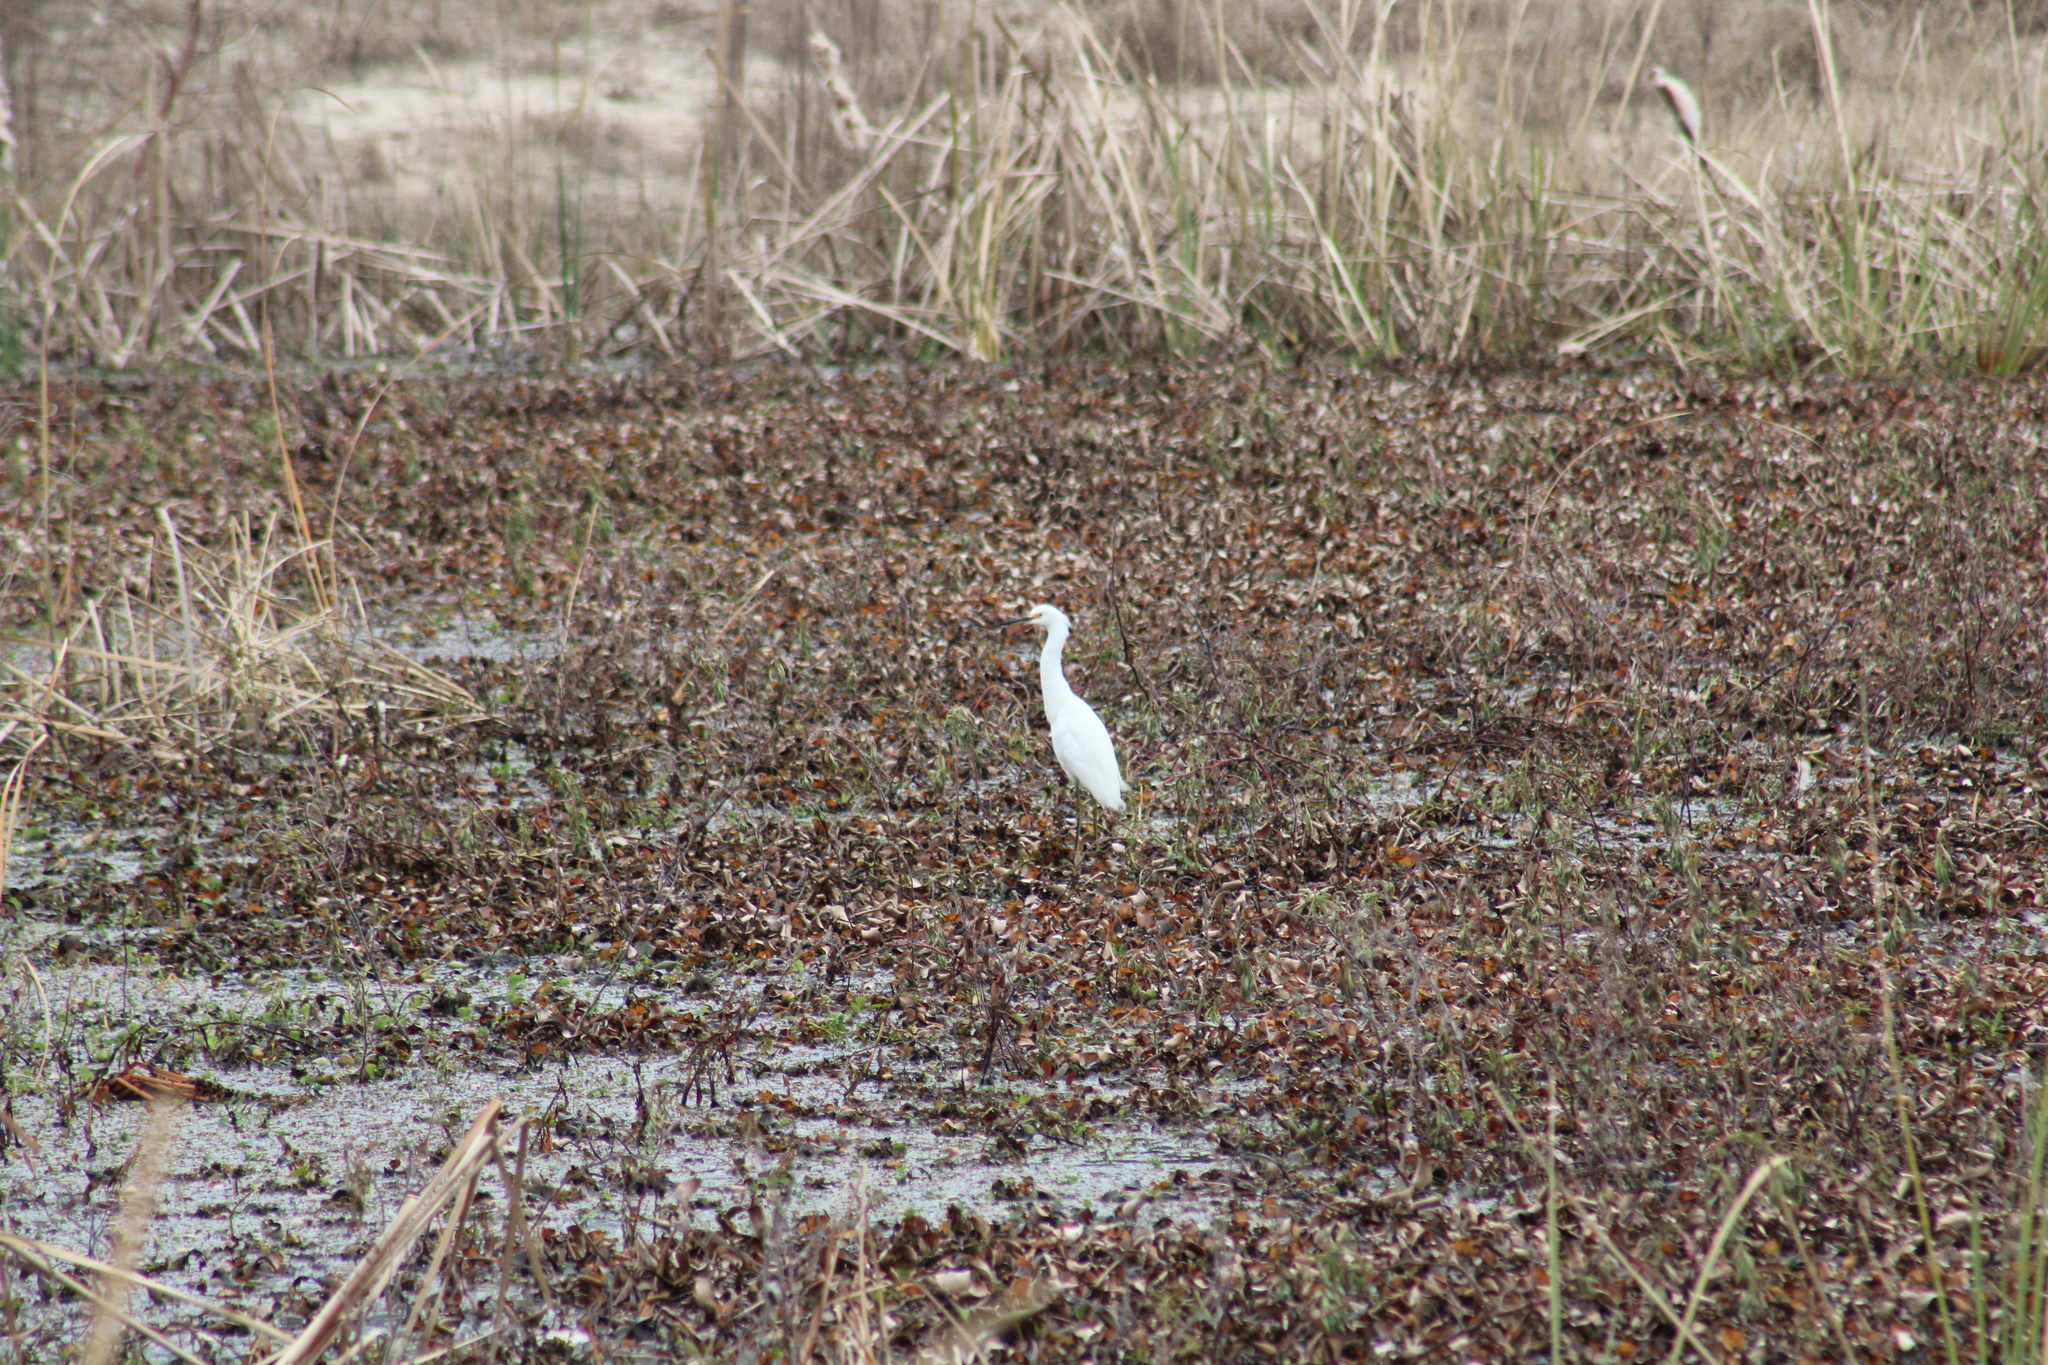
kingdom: Animalia
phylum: Chordata
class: Aves
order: Pelecaniformes
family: Ardeidae
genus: Egretta
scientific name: Egretta thula
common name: Snowy egret
